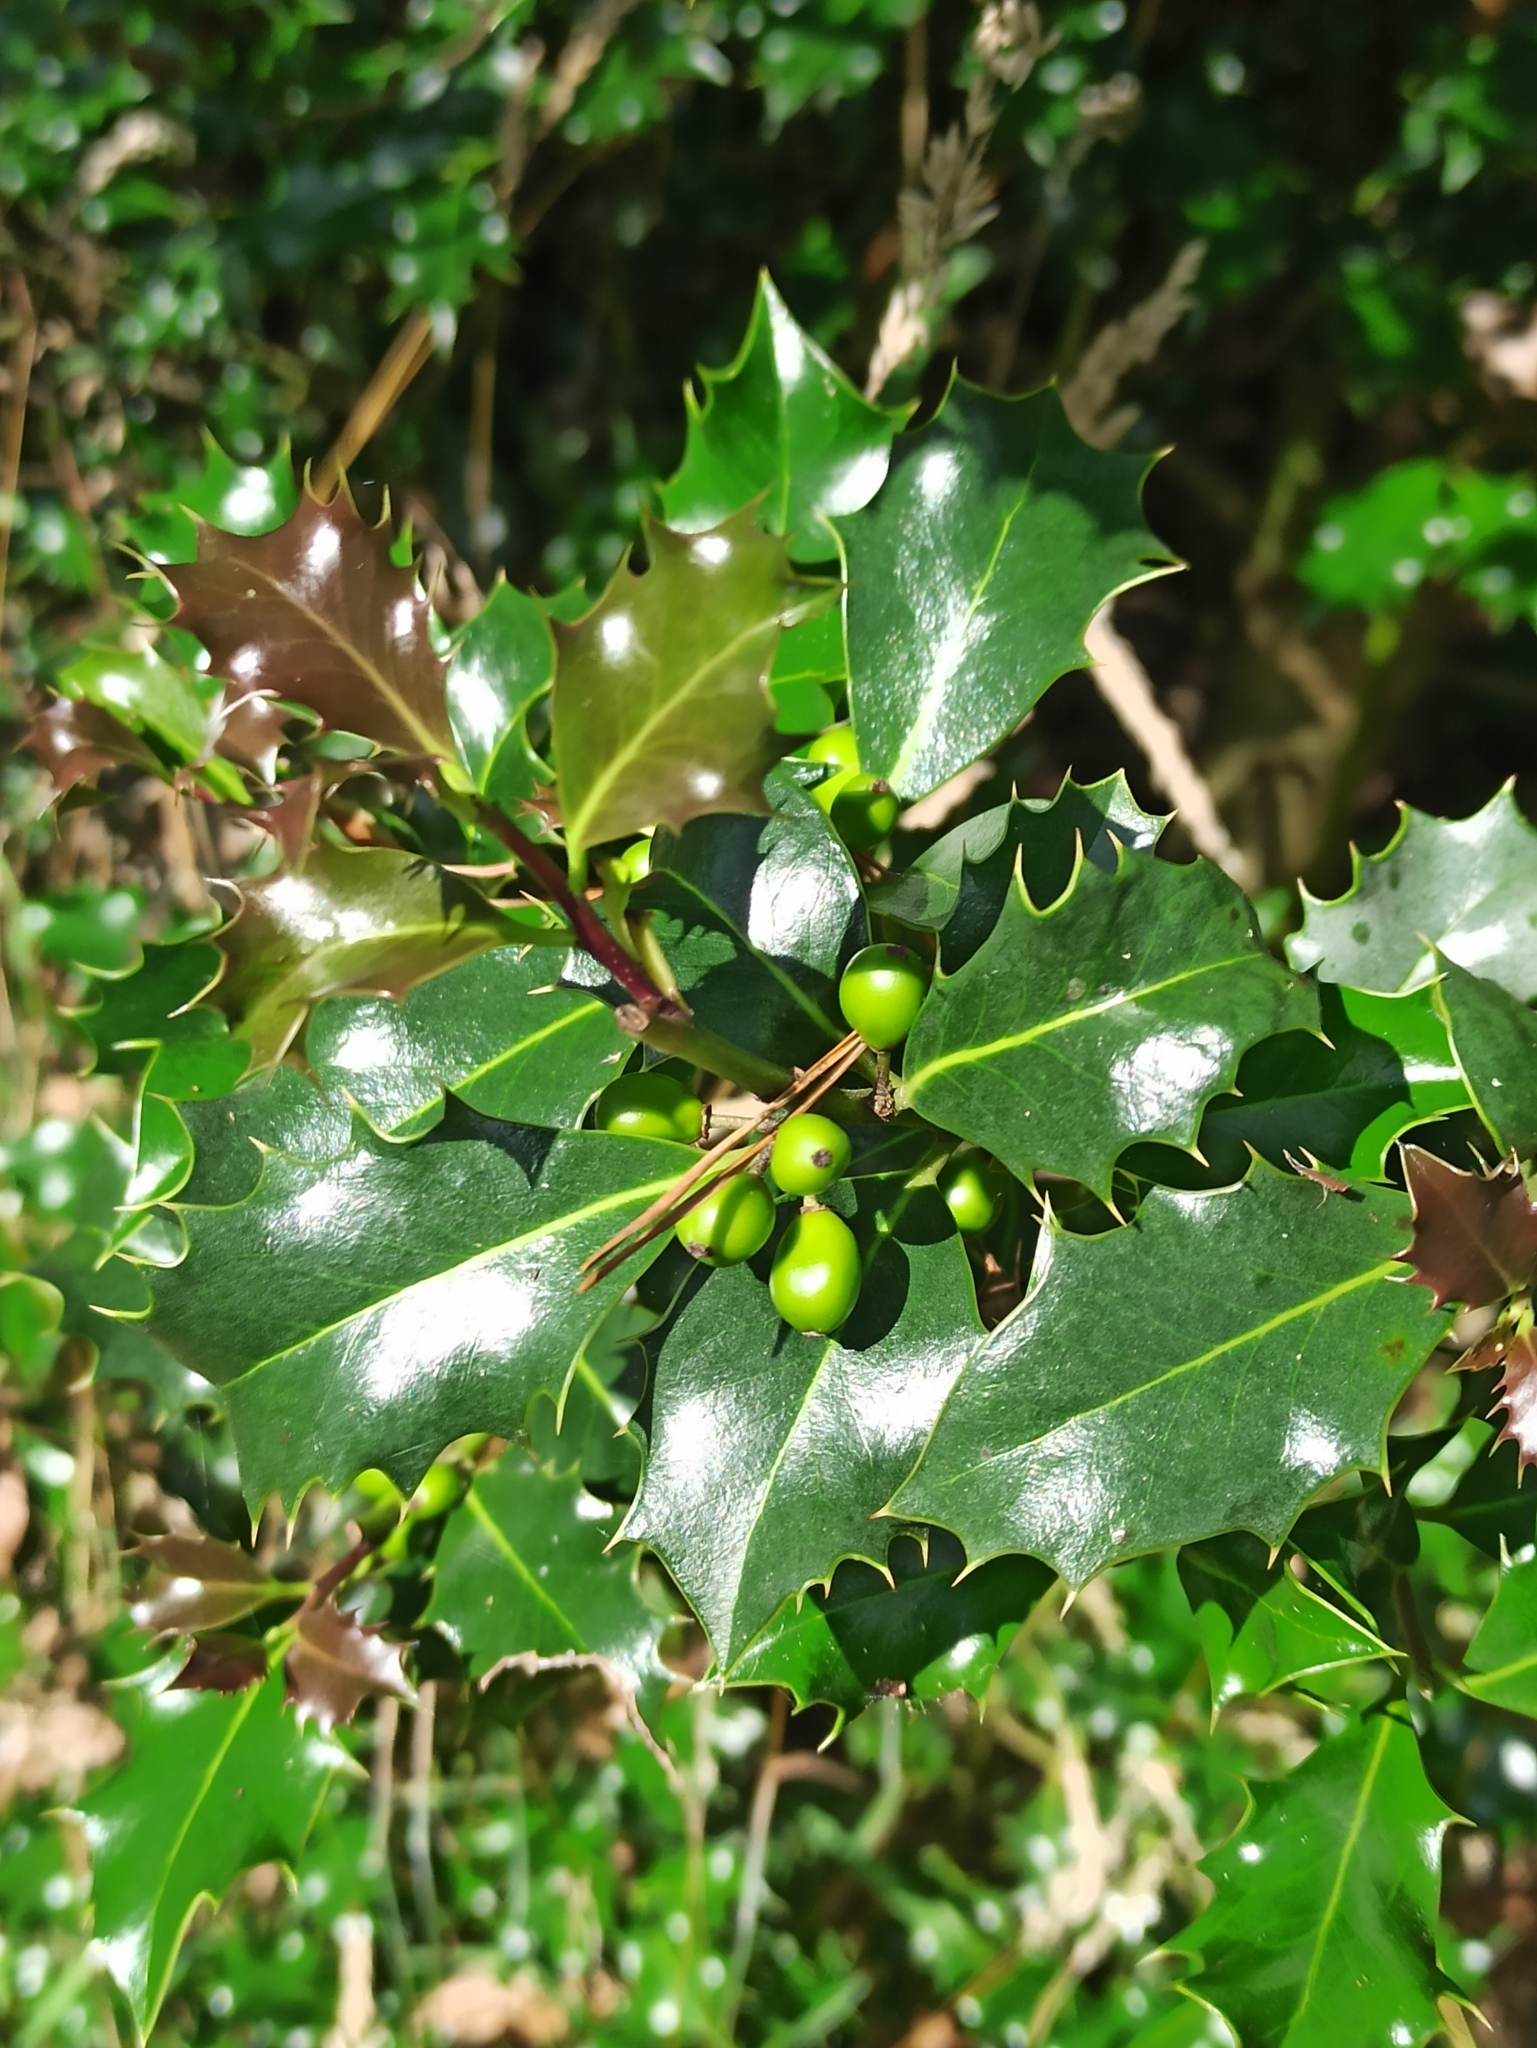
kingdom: Plantae
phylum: Tracheophyta
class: Magnoliopsida
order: Aquifoliales
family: Aquifoliaceae
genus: Ilex
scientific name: Ilex aquifolium
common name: English holly
